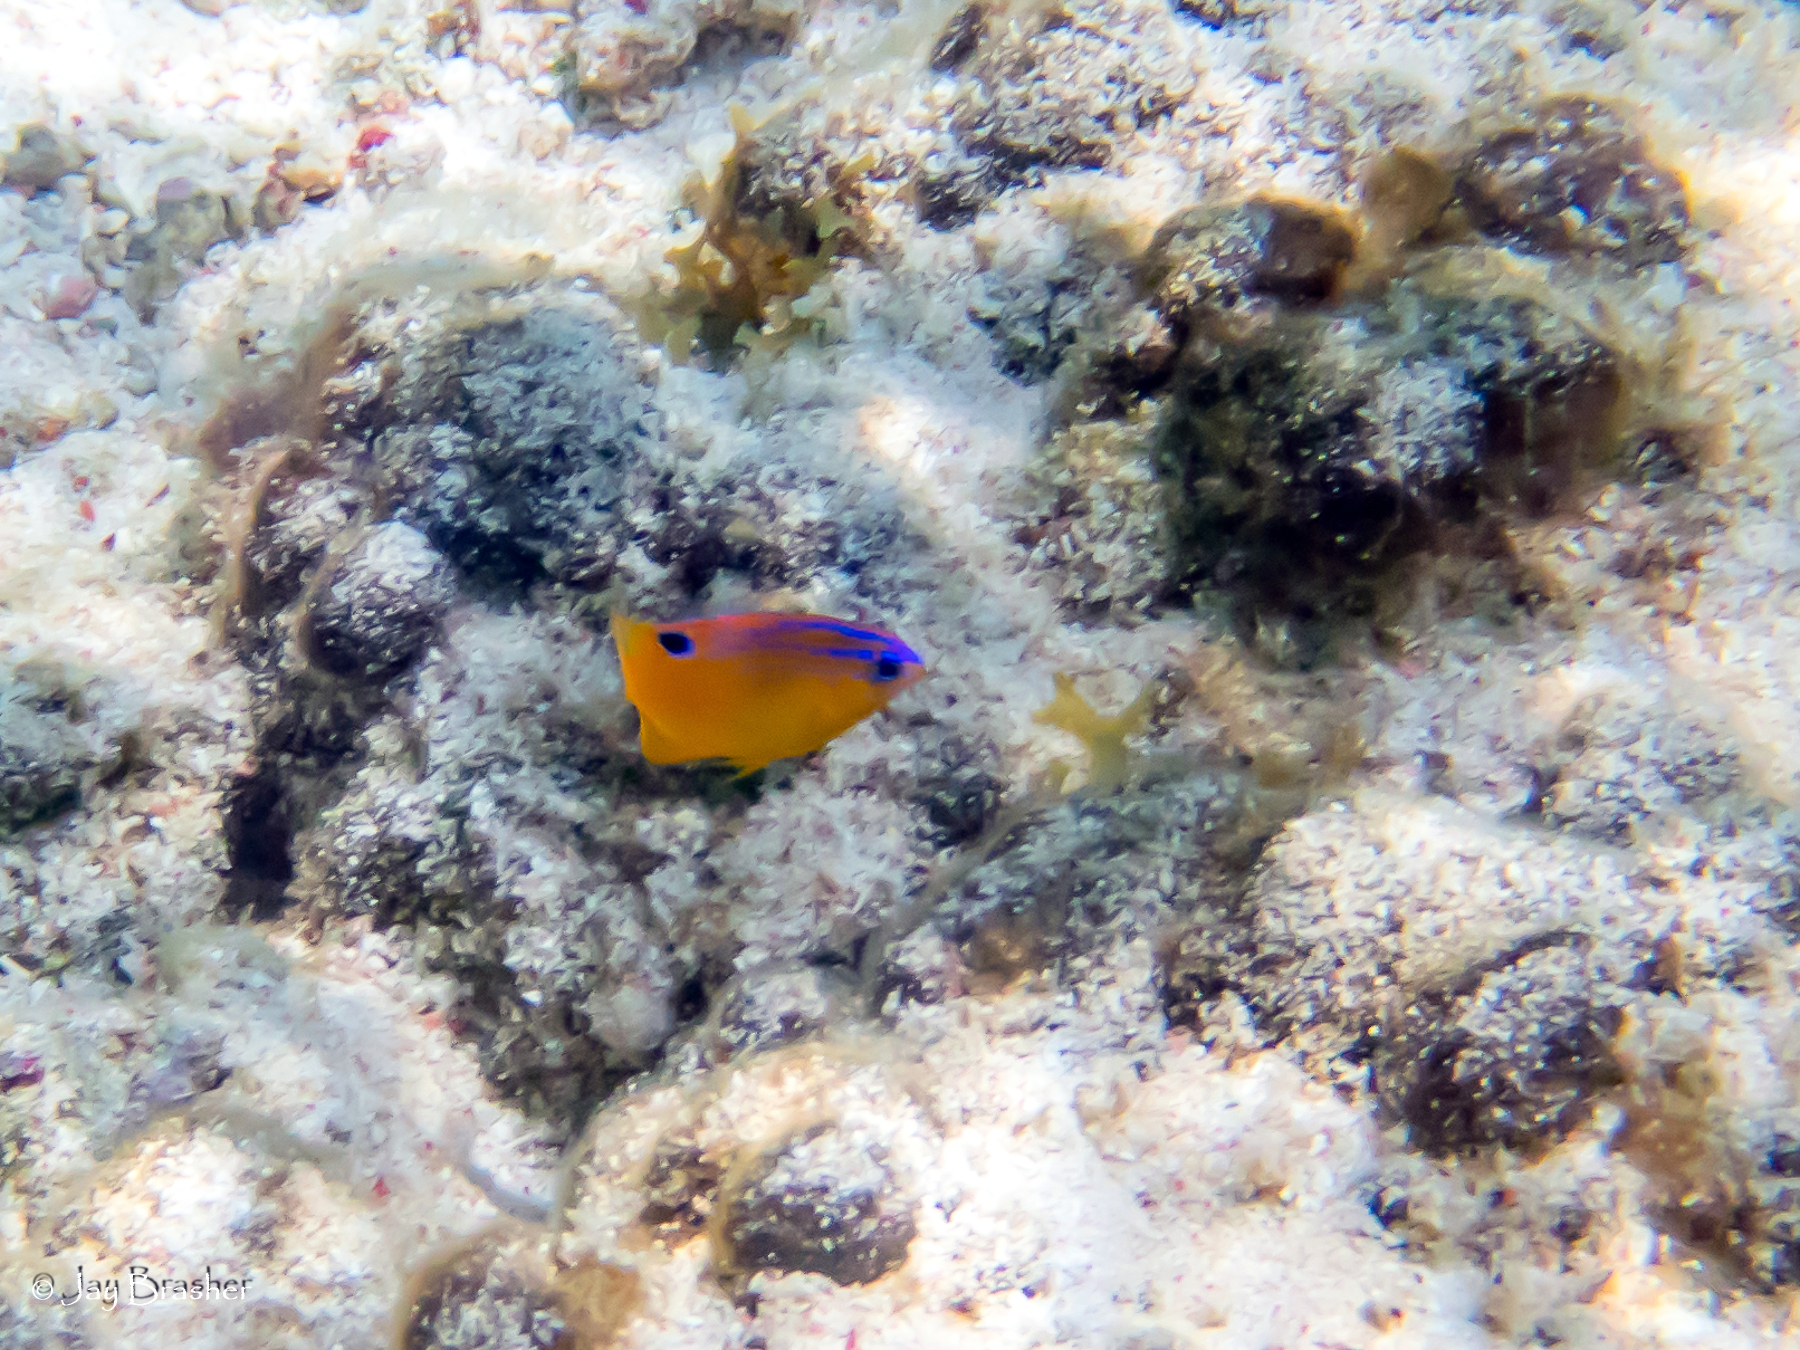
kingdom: Animalia
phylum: Chordata
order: Perciformes
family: Pomacentridae
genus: Stegastes
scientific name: Stegastes diencaeus
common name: Longfin damselfish
